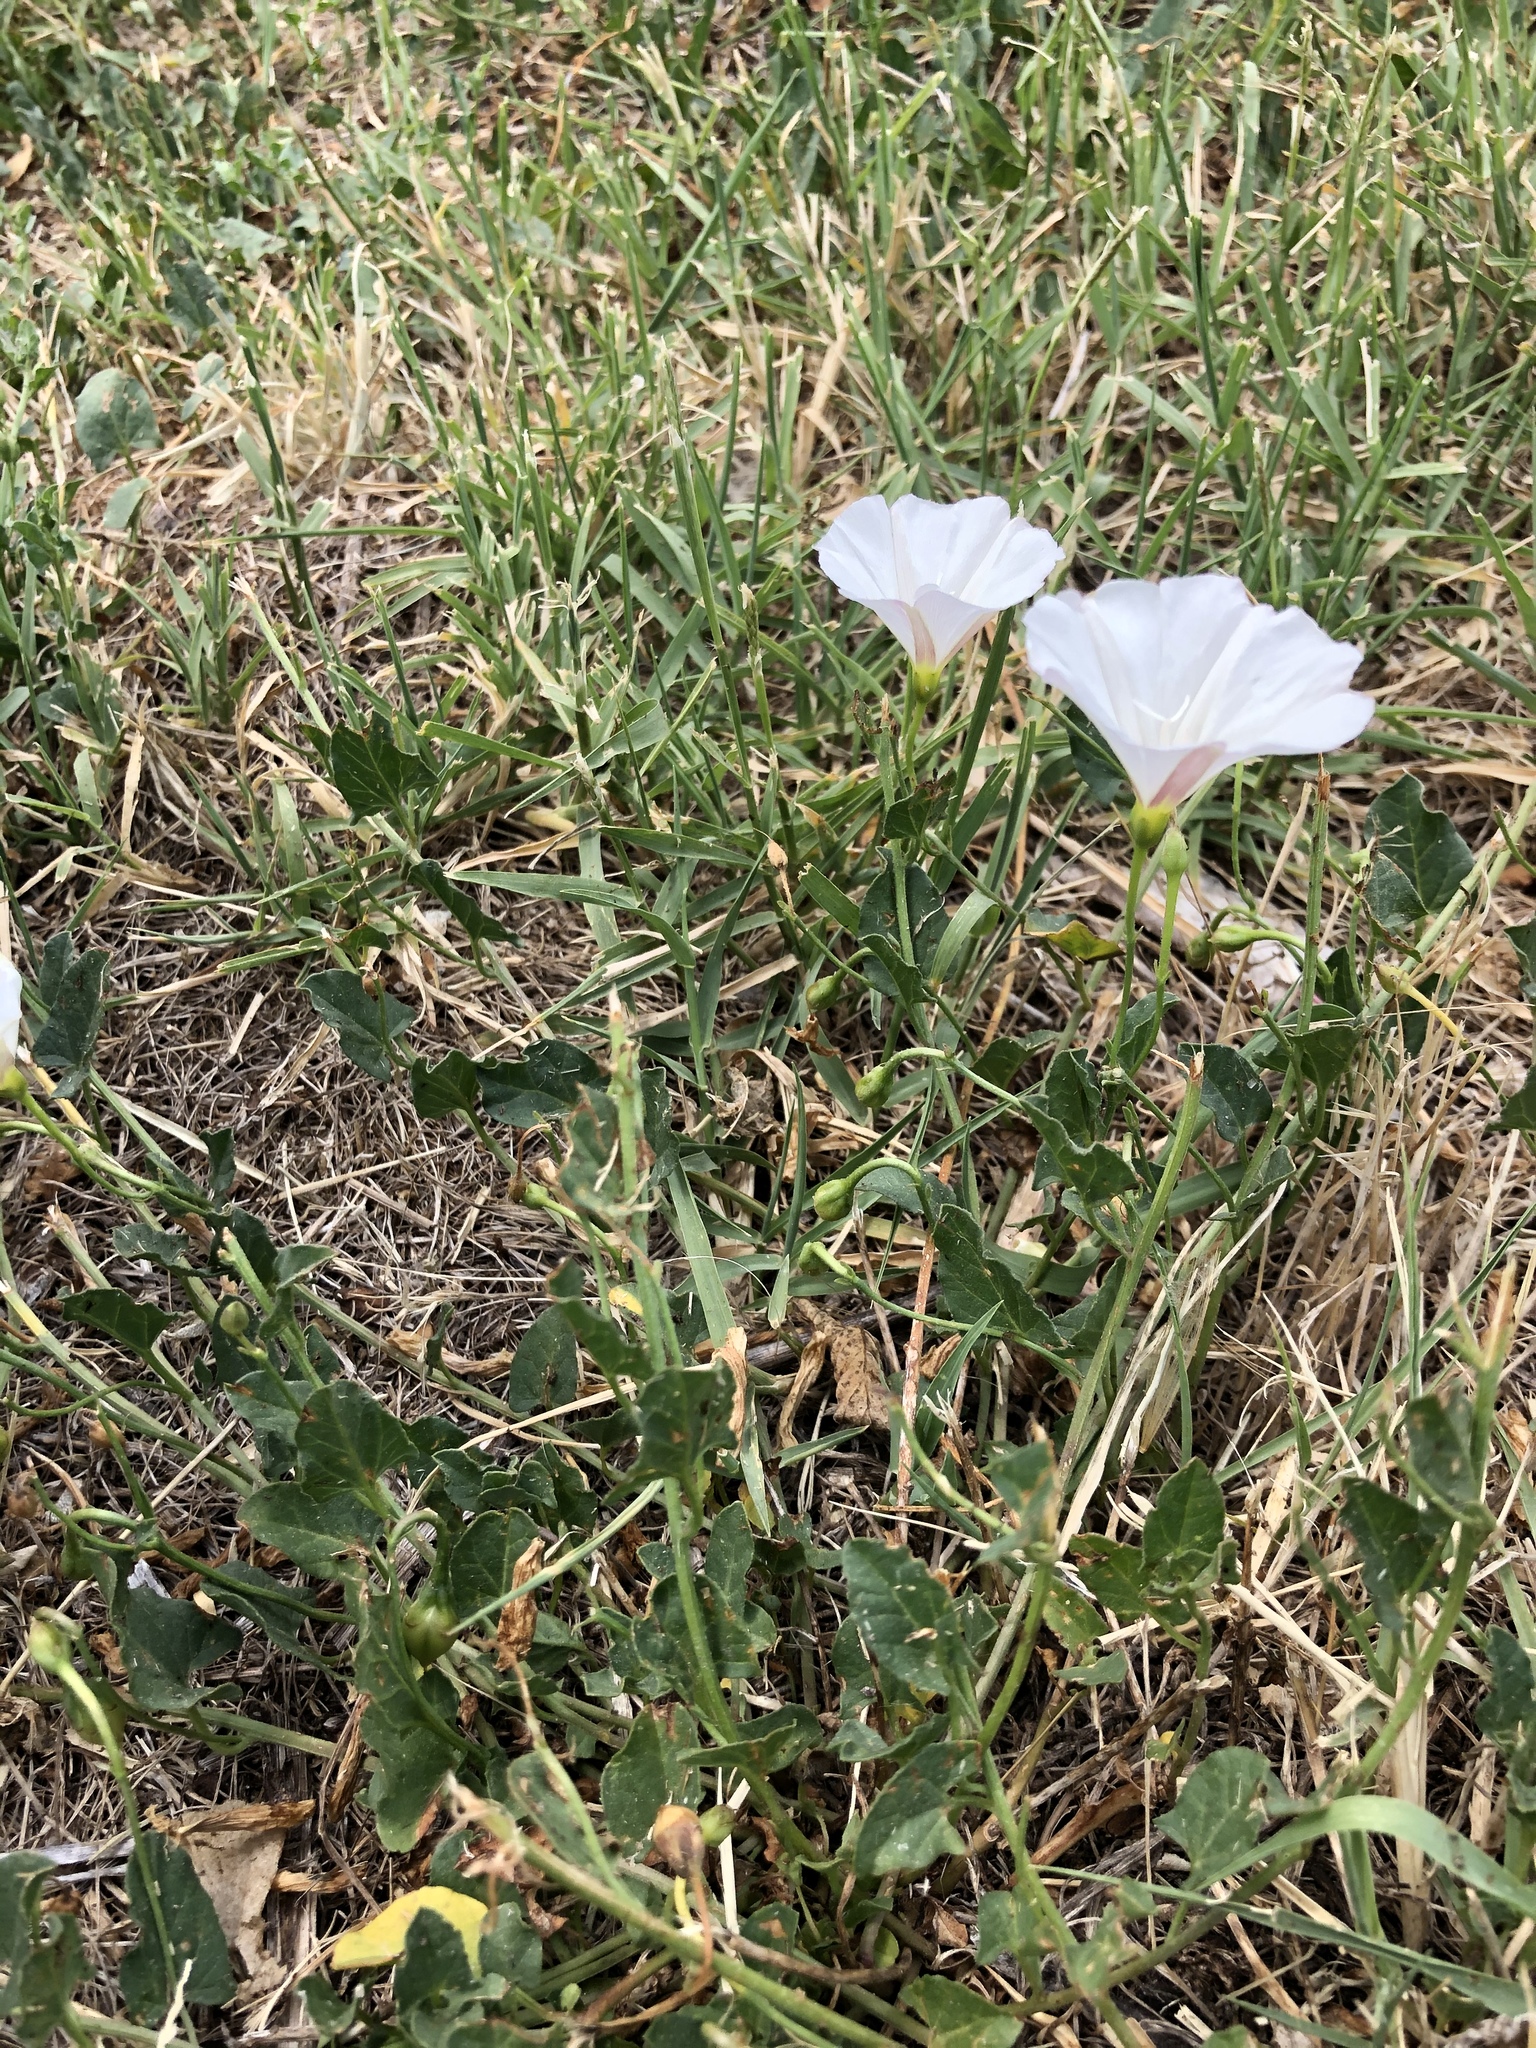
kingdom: Plantae
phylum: Tracheophyta
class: Magnoliopsida
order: Solanales
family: Convolvulaceae
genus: Convolvulus
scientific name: Convolvulus arvensis
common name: Field bindweed
